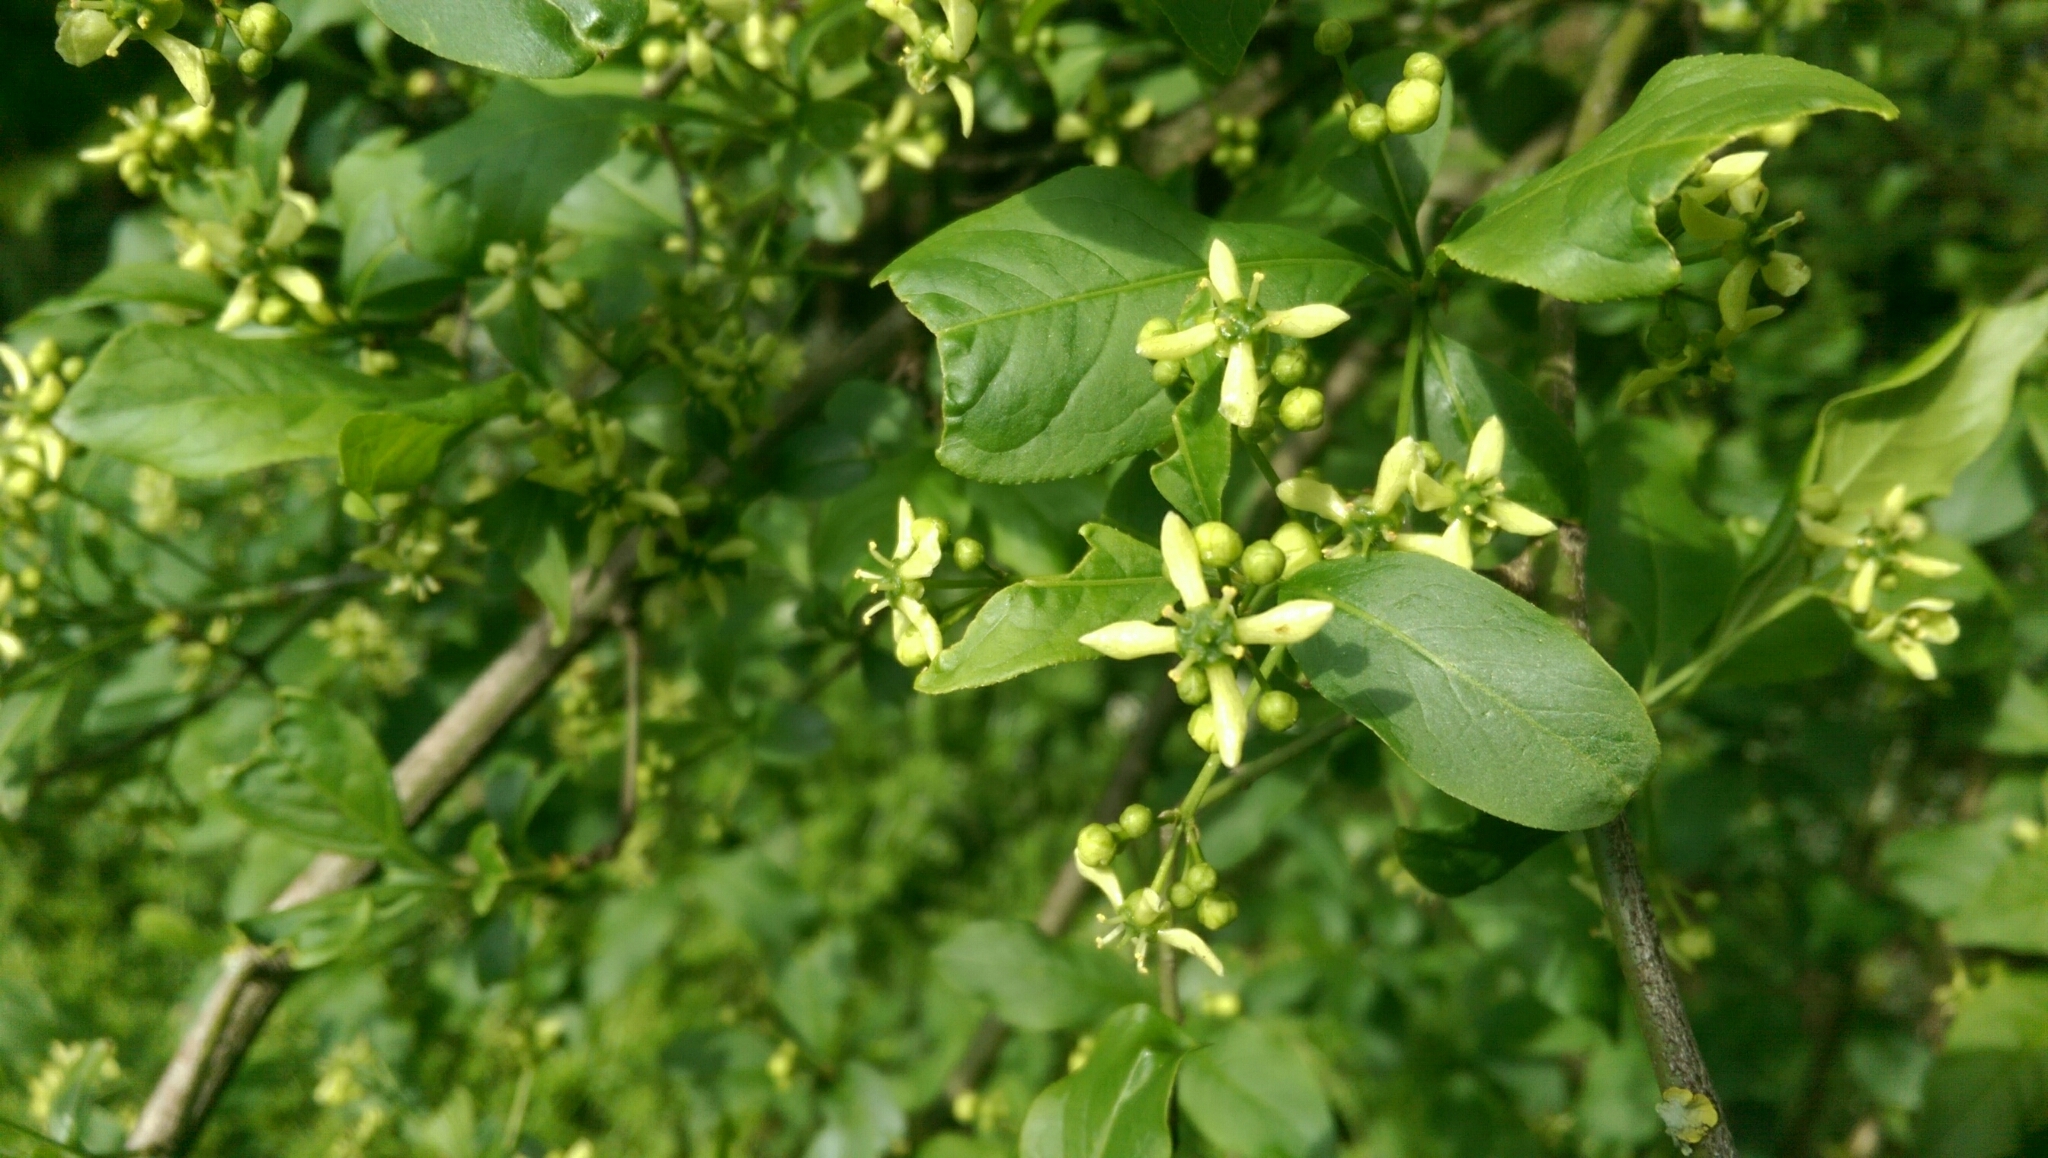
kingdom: Plantae
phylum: Tracheophyta
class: Magnoliopsida
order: Celastrales
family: Celastraceae
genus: Euonymus
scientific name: Euonymus europaeus
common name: Spindle
